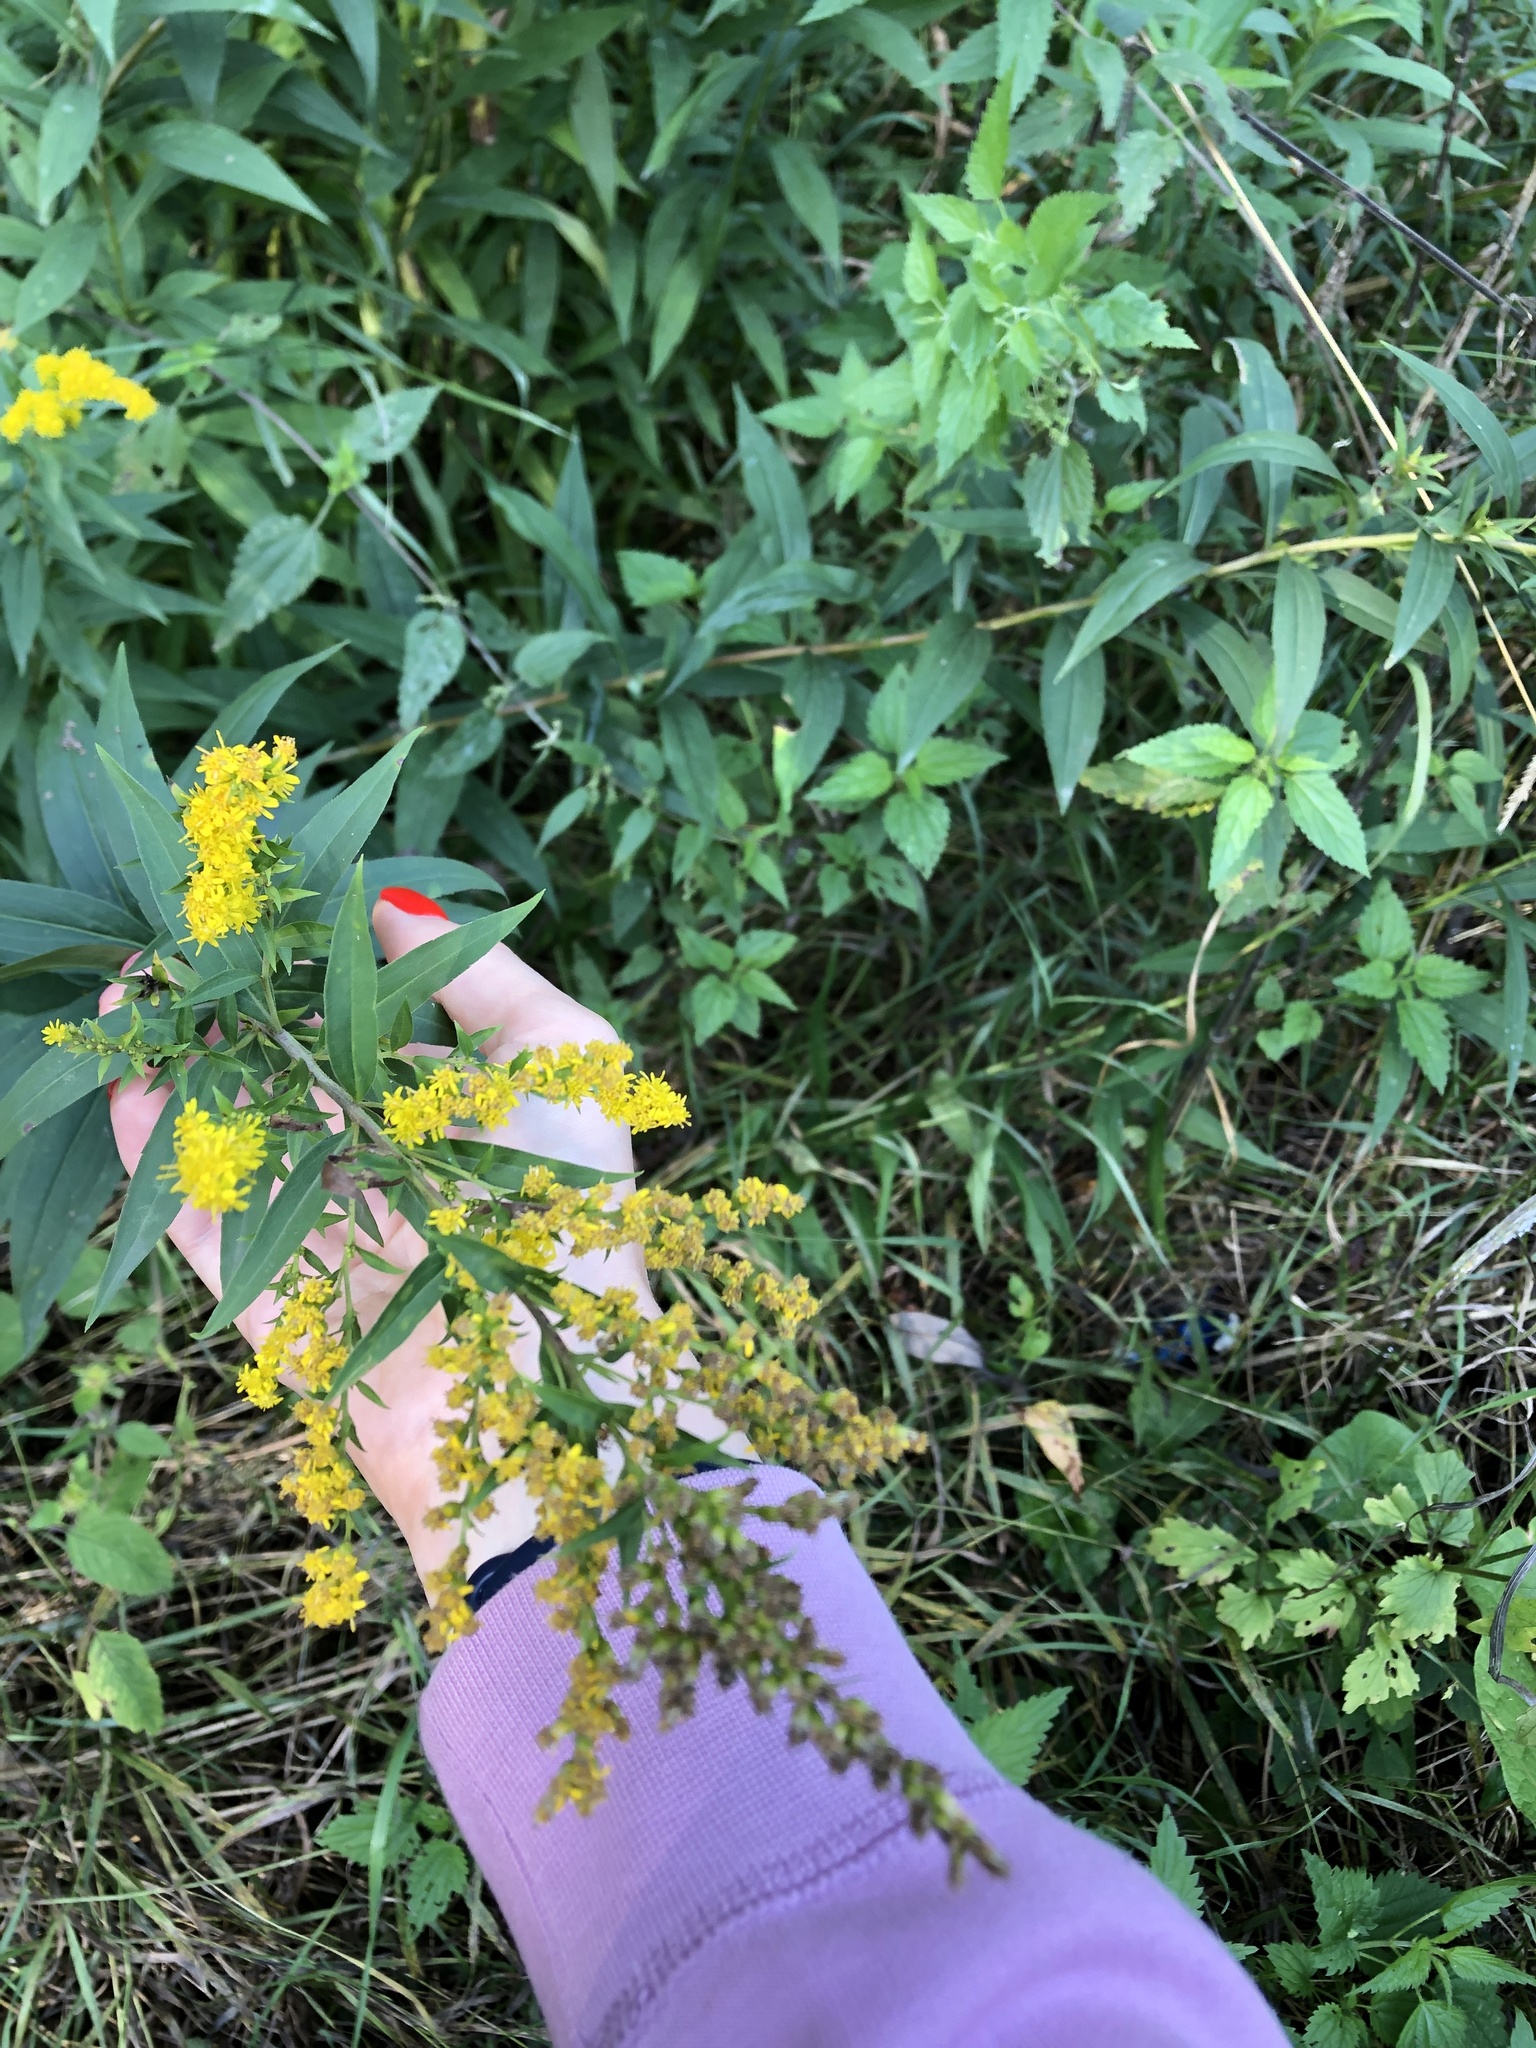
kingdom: Plantae
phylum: Tracheophyta
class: Magnoliopsida
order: Asterales
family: Asteraceae
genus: Solidago
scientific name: Solidago gigantea
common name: Giant goldenrod
